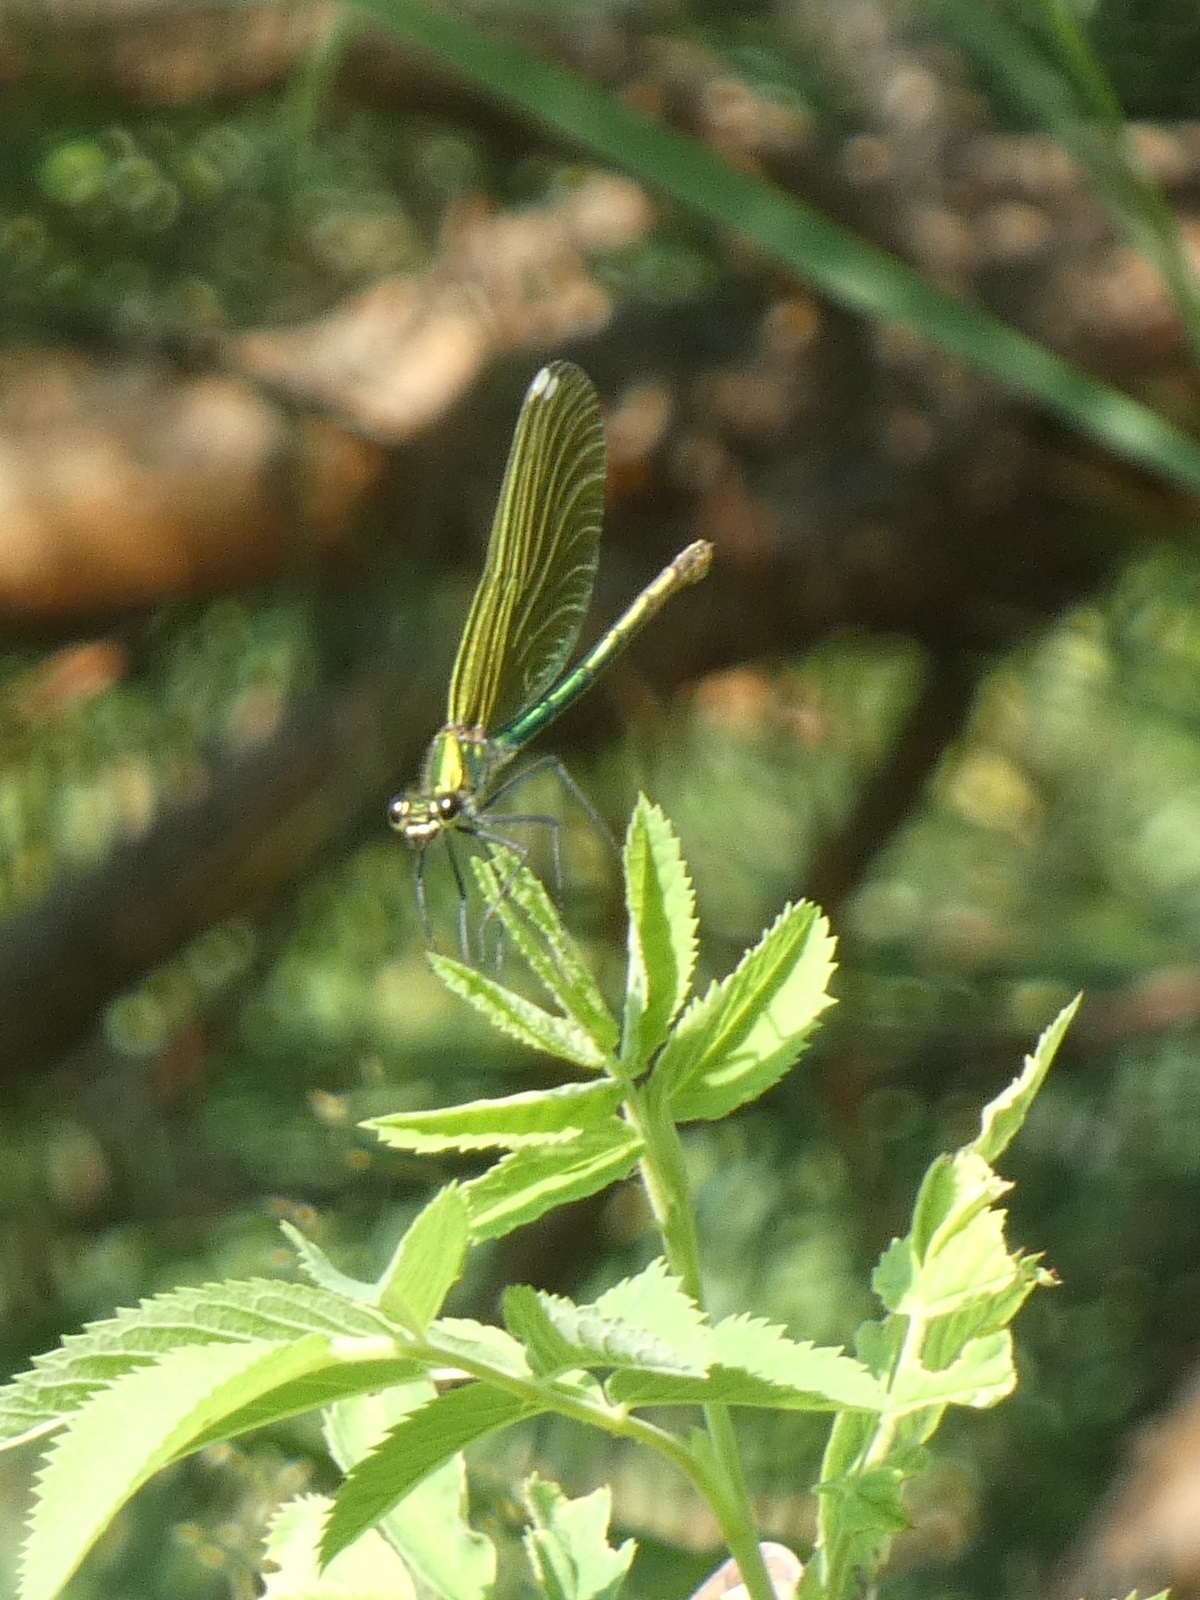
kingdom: Animalia
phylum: Arthropoda
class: Insecta
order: Odonata
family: Calopterygidae
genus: Calopteryx
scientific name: Calopteryx splendens
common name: Banded demoiselle
